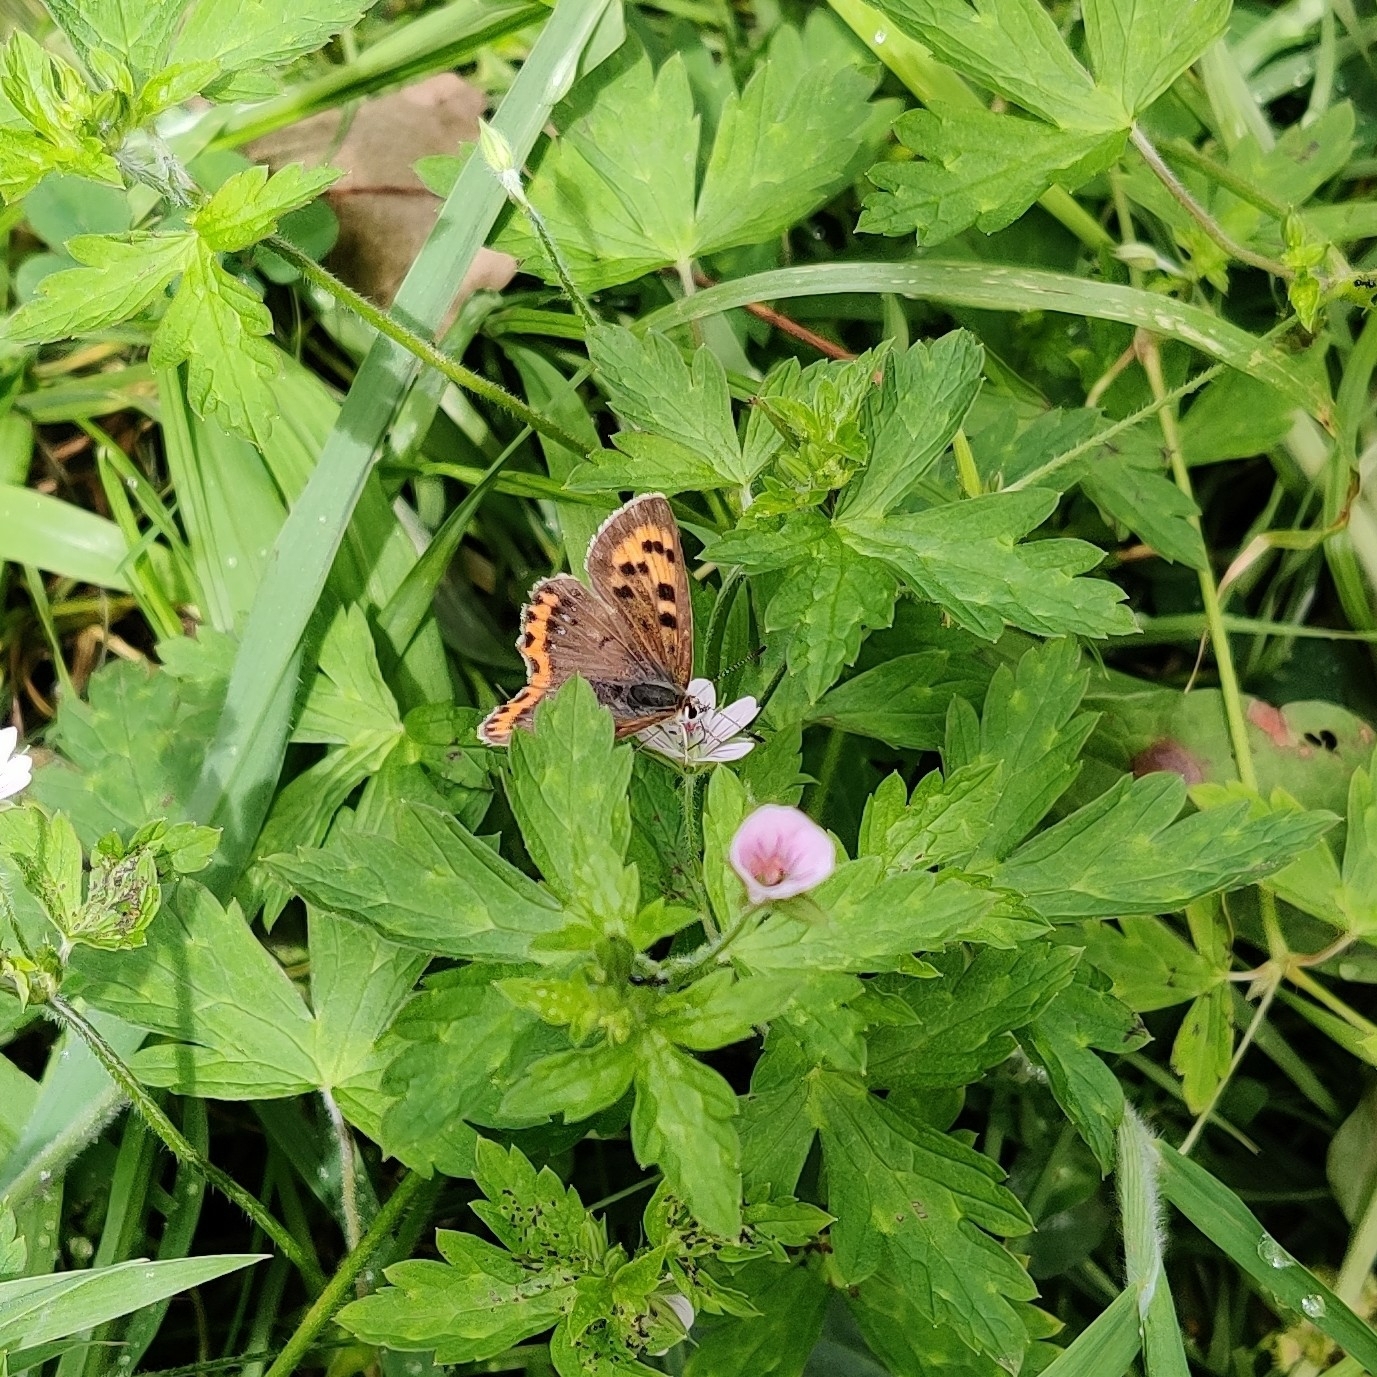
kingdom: Animalia
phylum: Arthropoda
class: Insecta
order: Lepidoptera
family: Lycaenidae
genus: Lycaena
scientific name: Lycaena phlaeas
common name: Small copper
